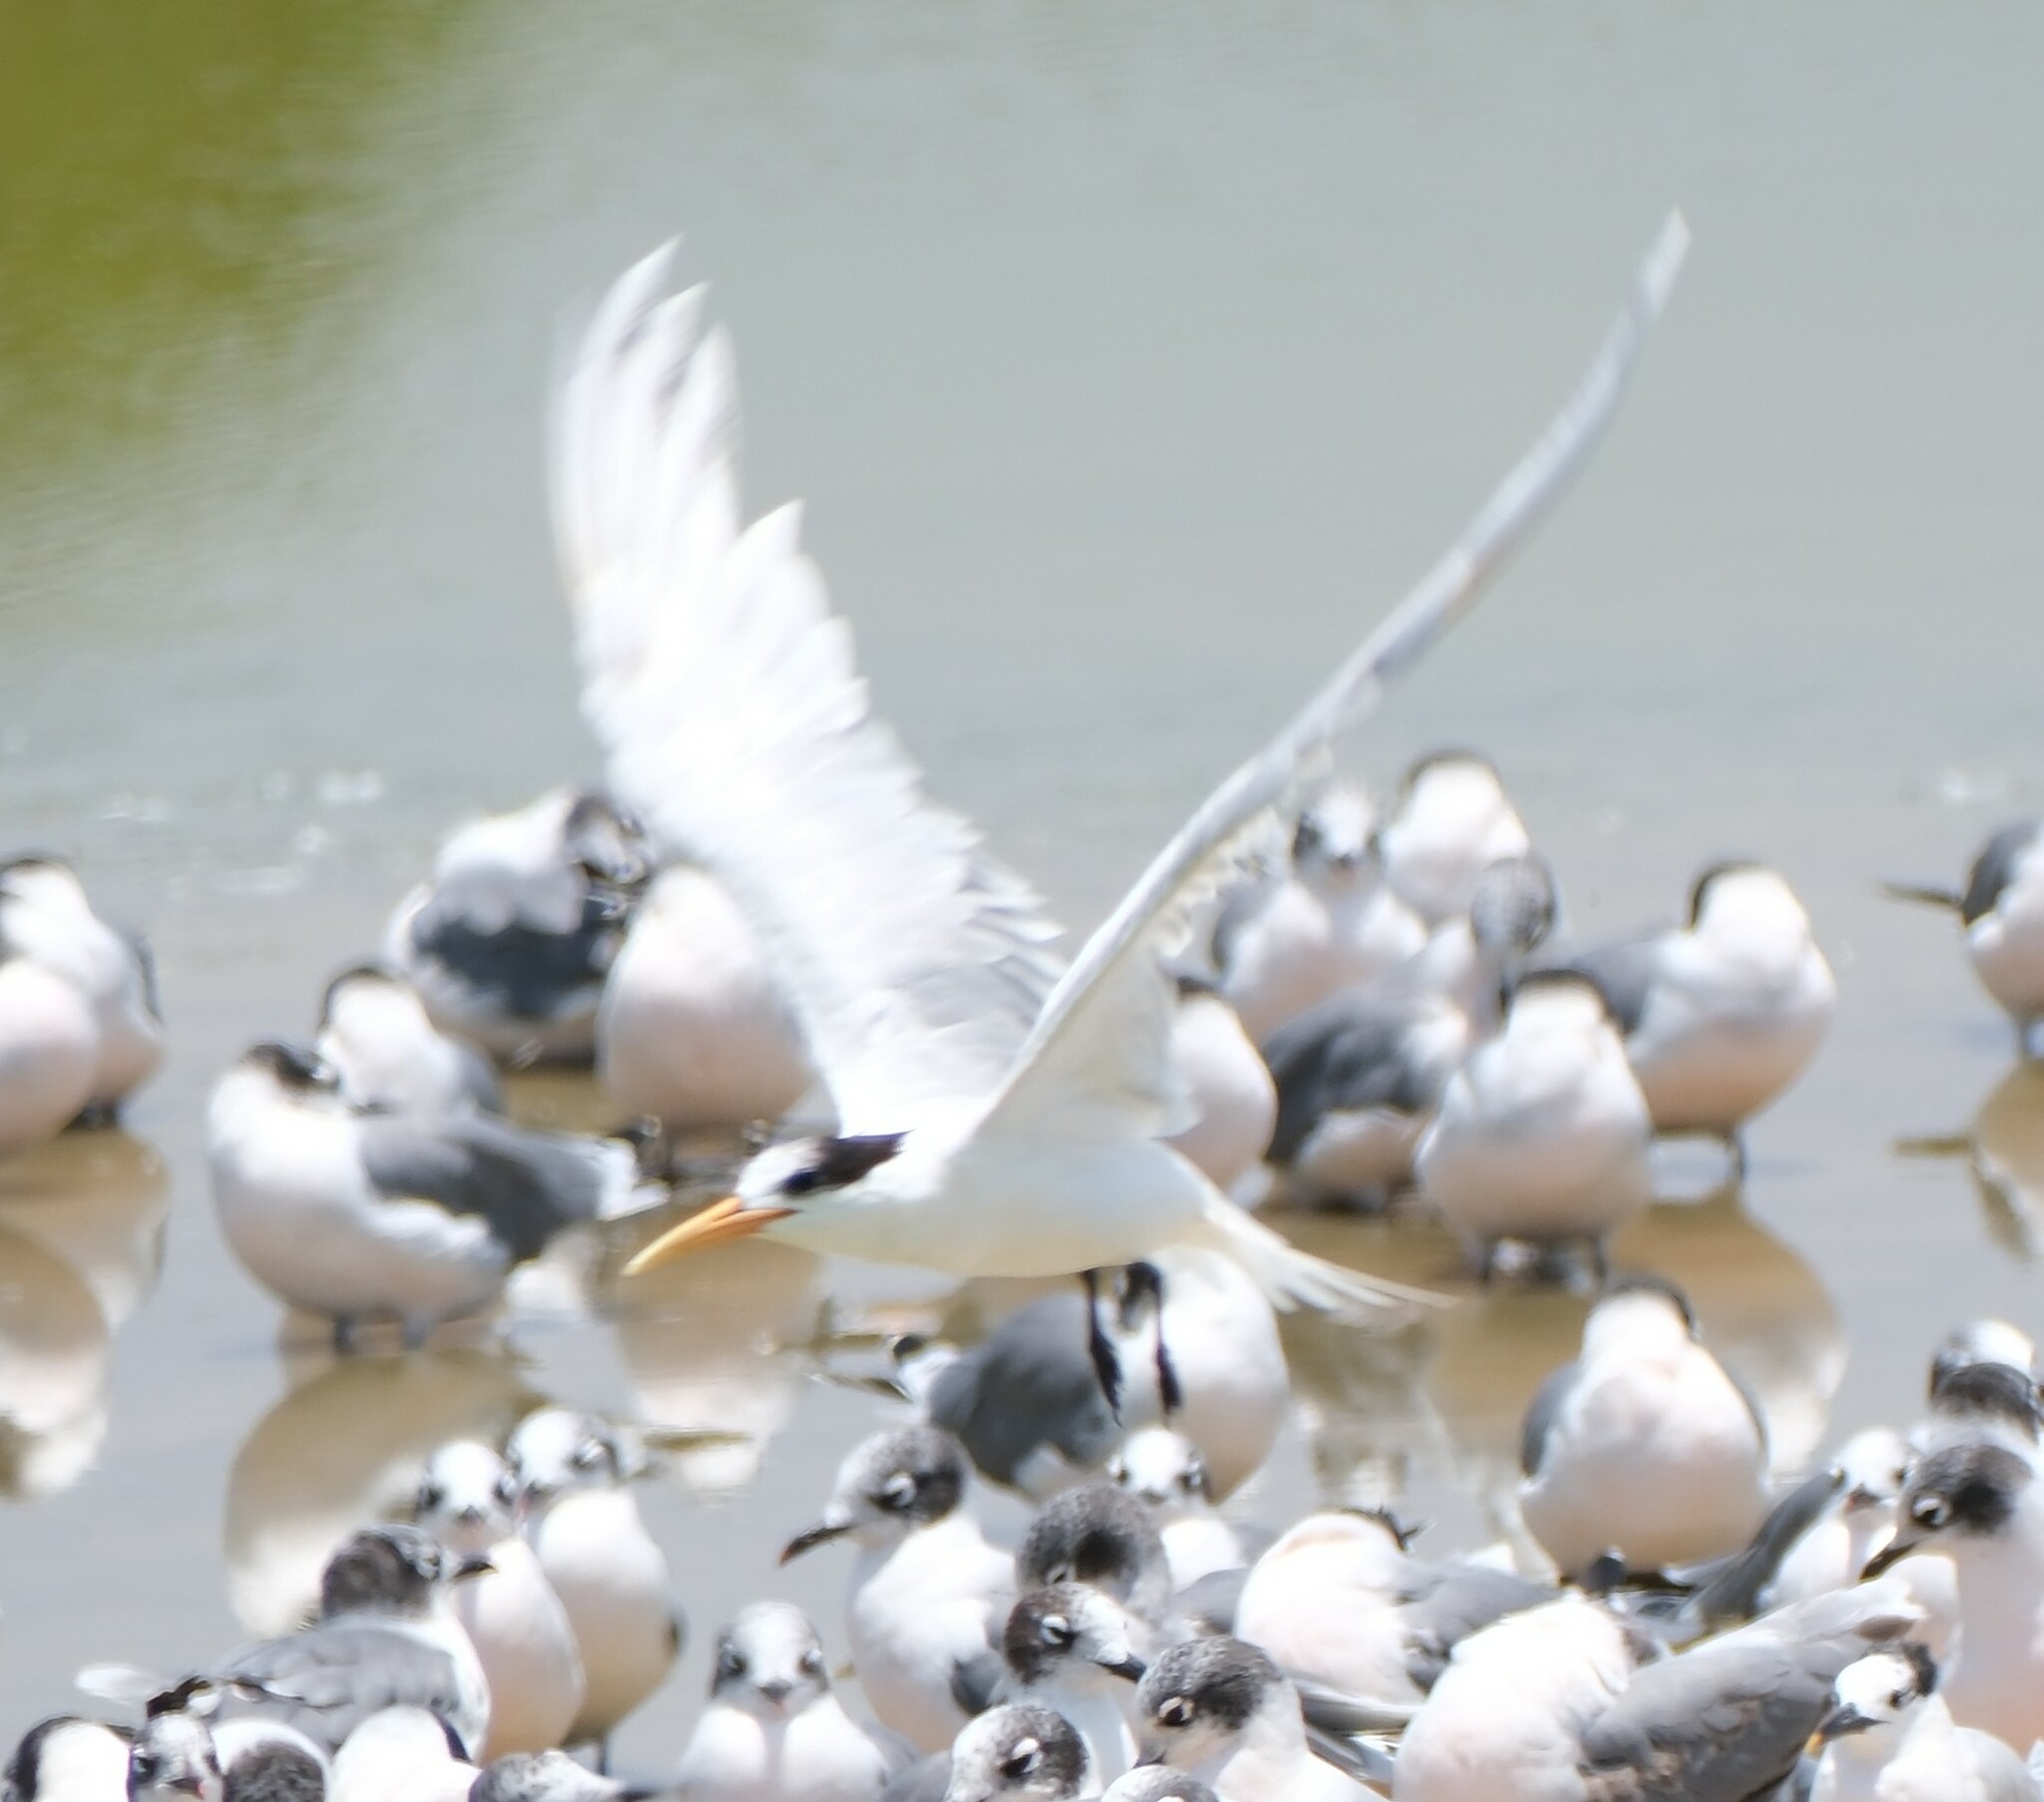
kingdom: Animalia
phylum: Chordata
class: Aves
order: Charadriiformes
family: Laridae
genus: Thalasseus
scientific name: Thalasseus elegans
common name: Elegant tern
